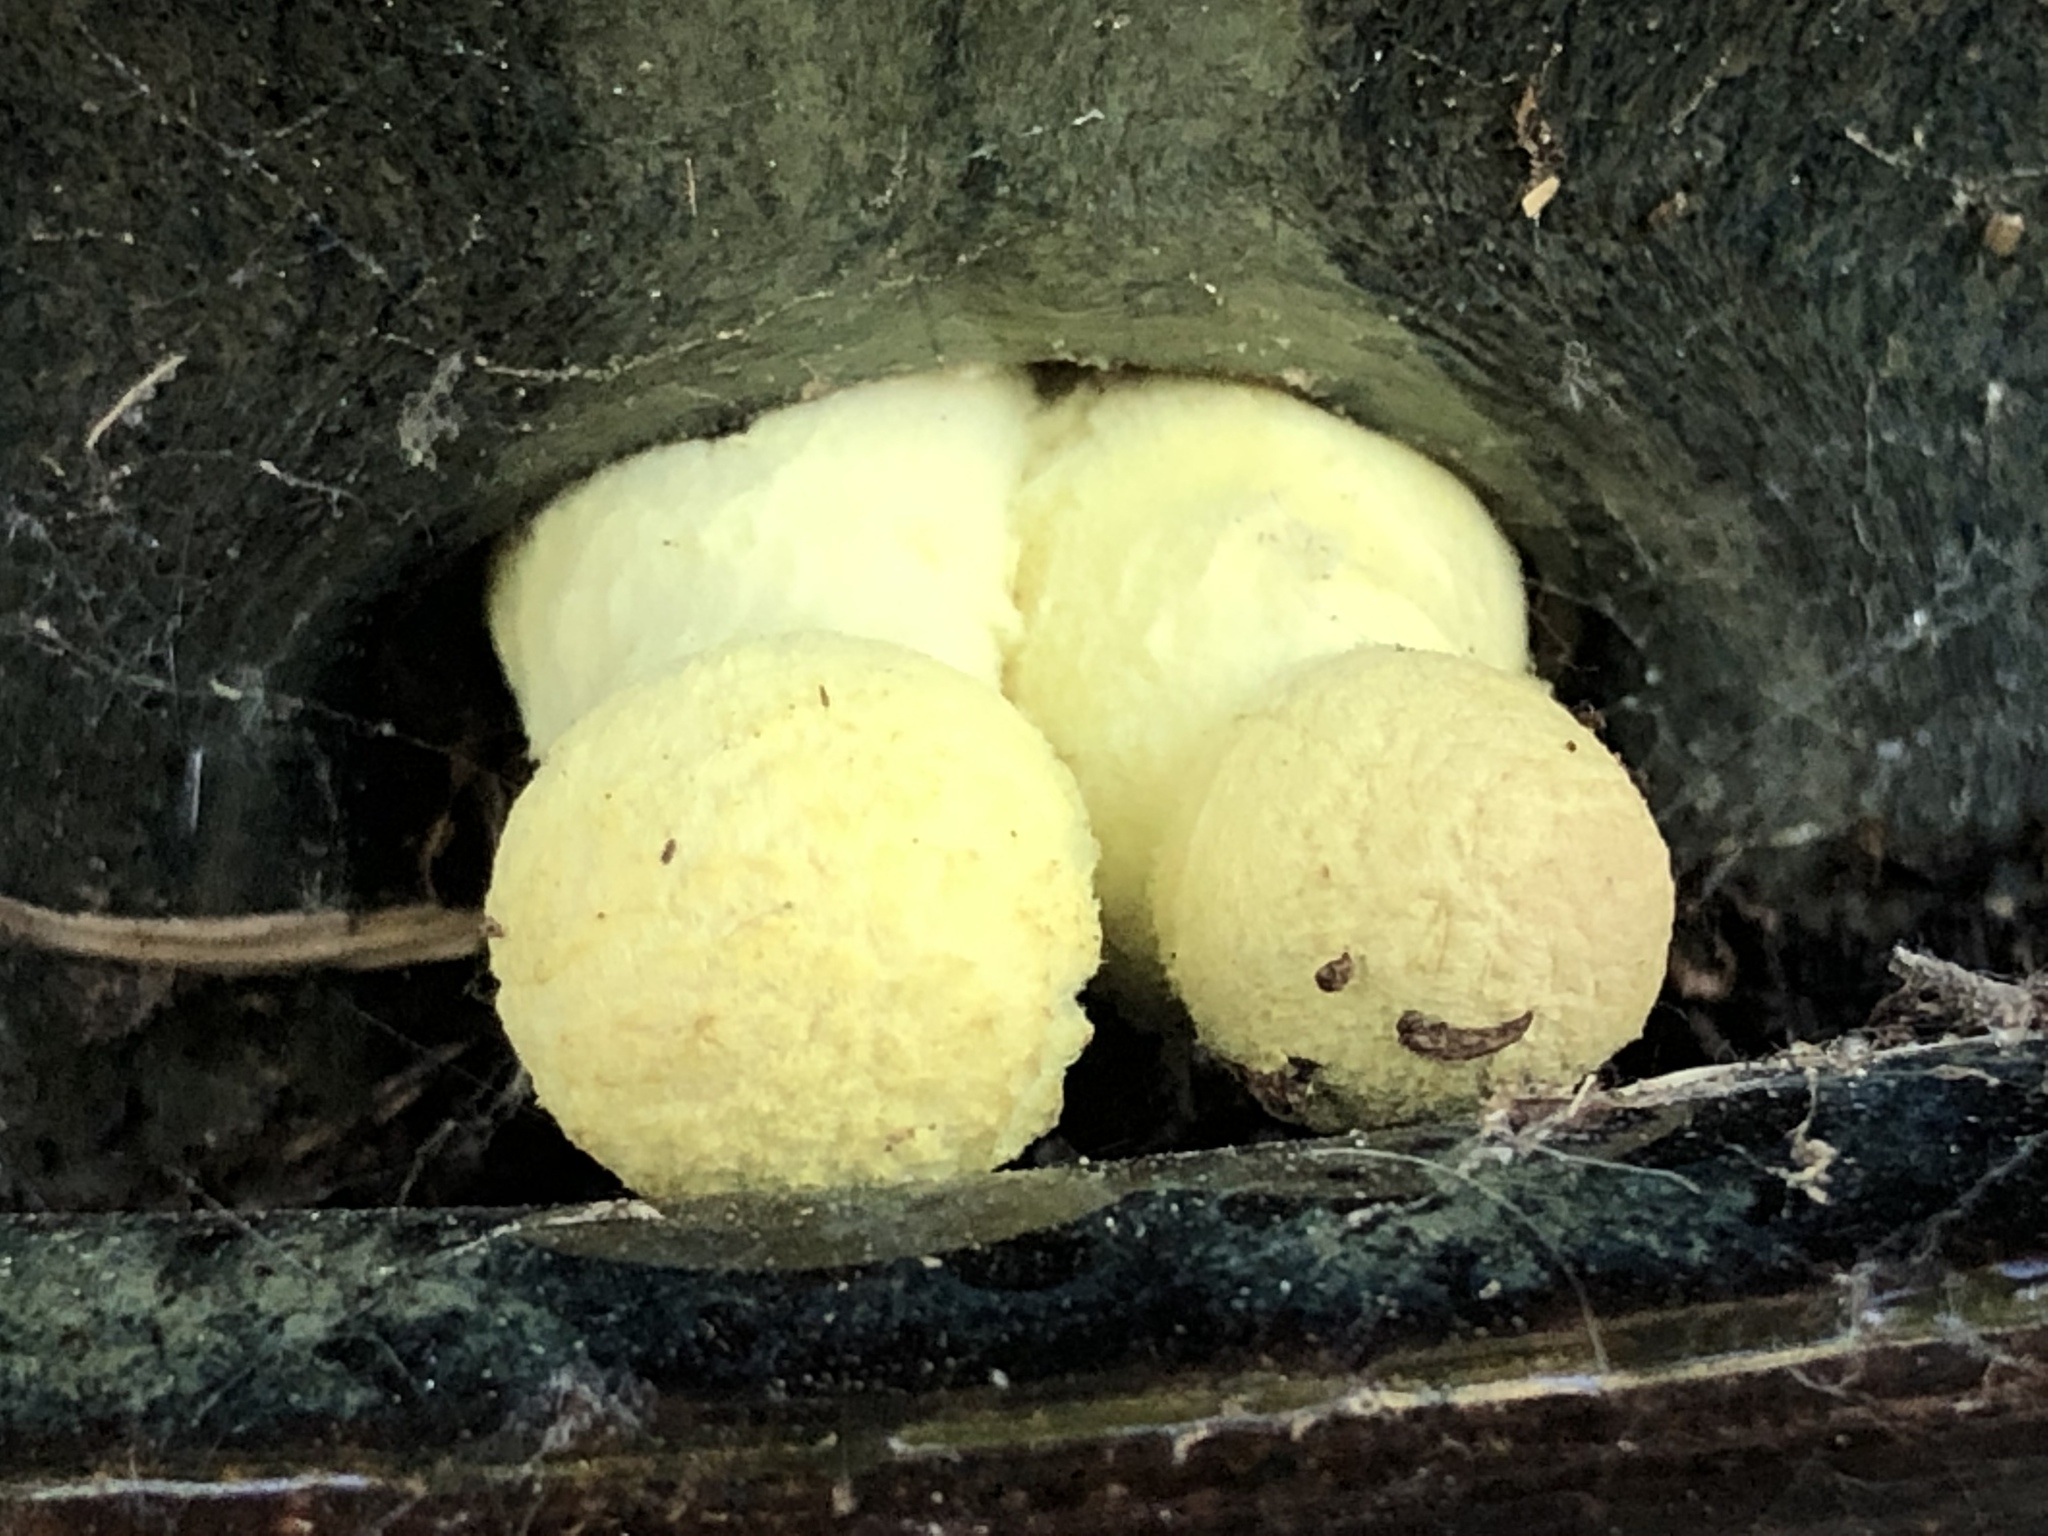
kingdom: Fungi
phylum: Basidiomycota
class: Agaricomycetes
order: Agaricales
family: Agaricaceae
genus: Leucocoprinus
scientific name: Leucocoprinus birnbaumii
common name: Plantpot dapperling
